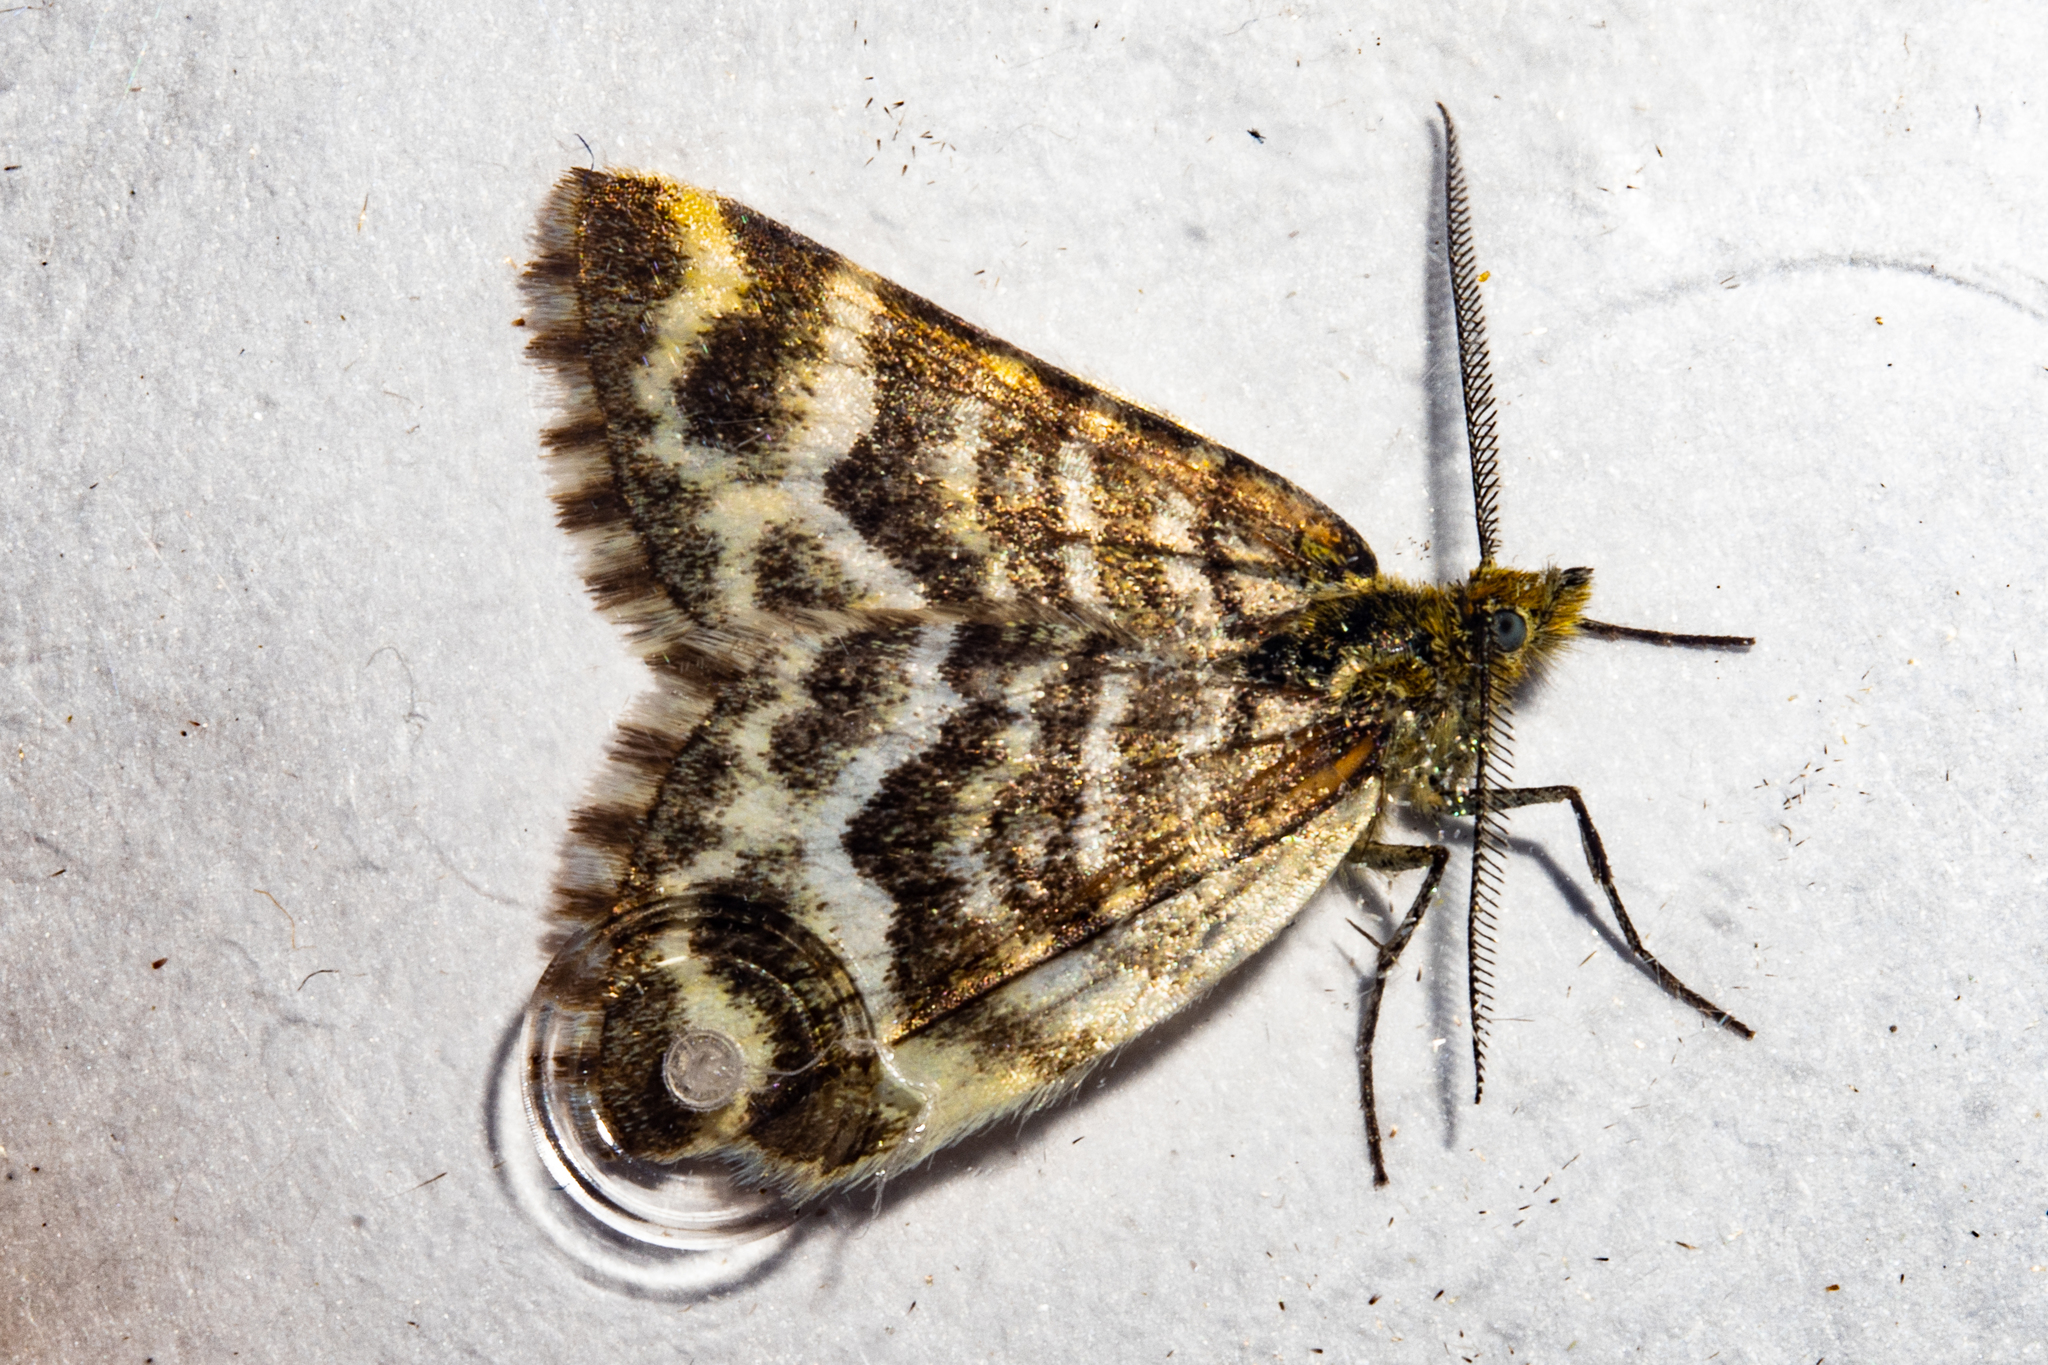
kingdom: Animalia
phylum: Arthropoda
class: Insecta
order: Lepidoptera
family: Geometridae
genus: Notoreas
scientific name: Notoreas paradelpha
